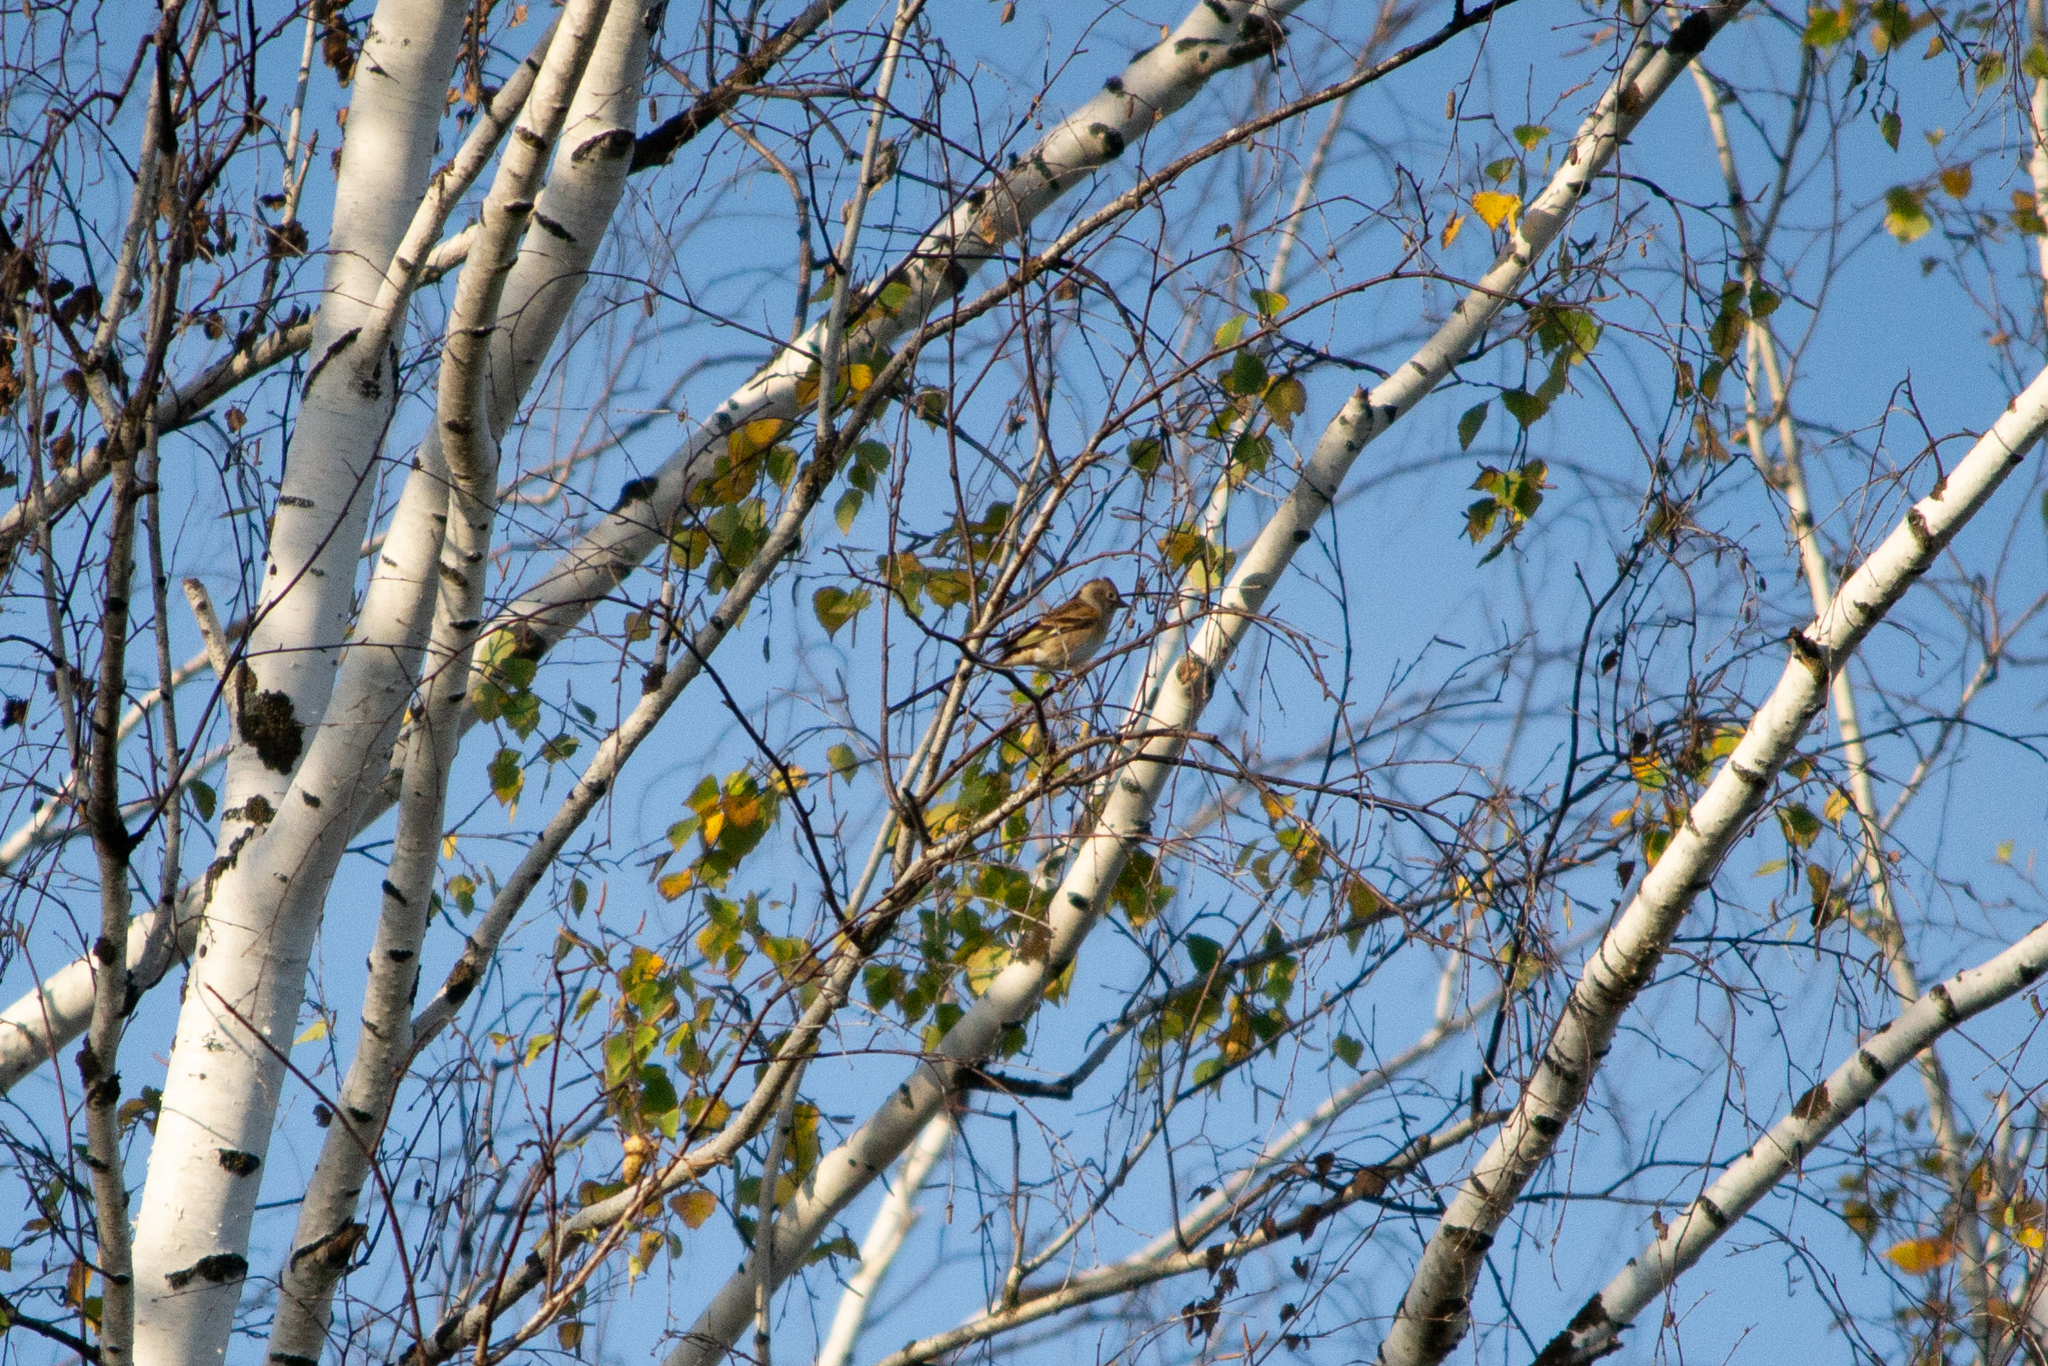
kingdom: Animalia
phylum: Chordata
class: Aves
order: Passeriformes
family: Fringillidae
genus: Fringilla
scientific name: Fringilla montifringilla
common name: Brambling
